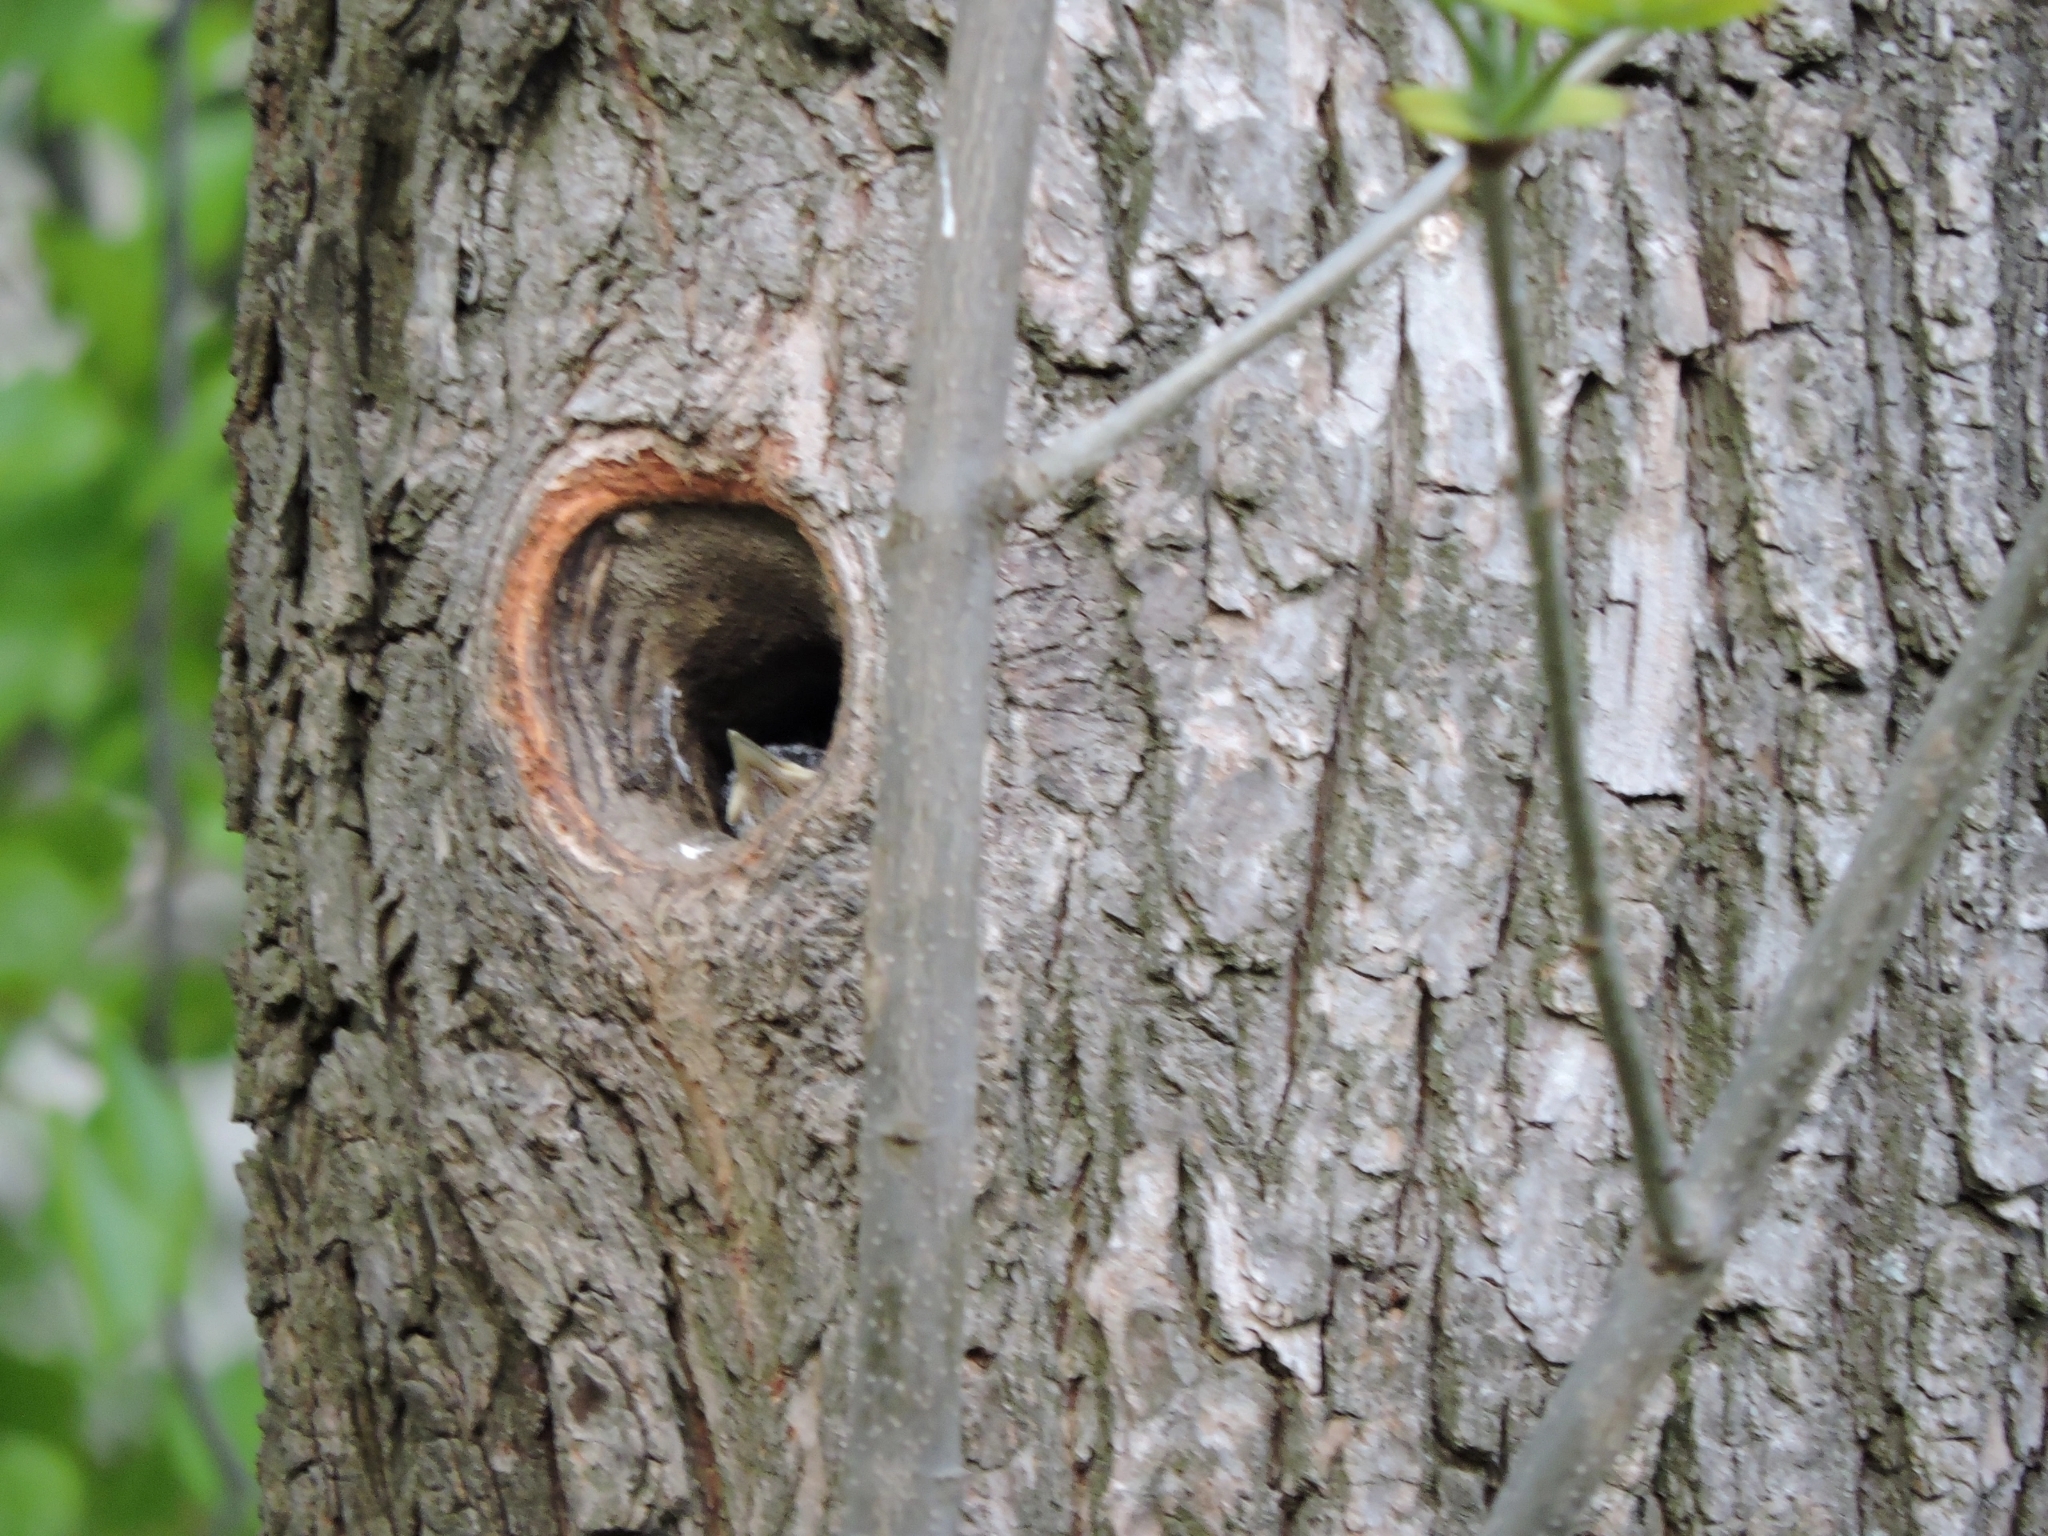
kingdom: Animalia
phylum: Chordata
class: Aves
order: Passeriformes
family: Sittidae
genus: Sitta
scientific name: Sitta europaea
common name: Eurasian nuthatch
